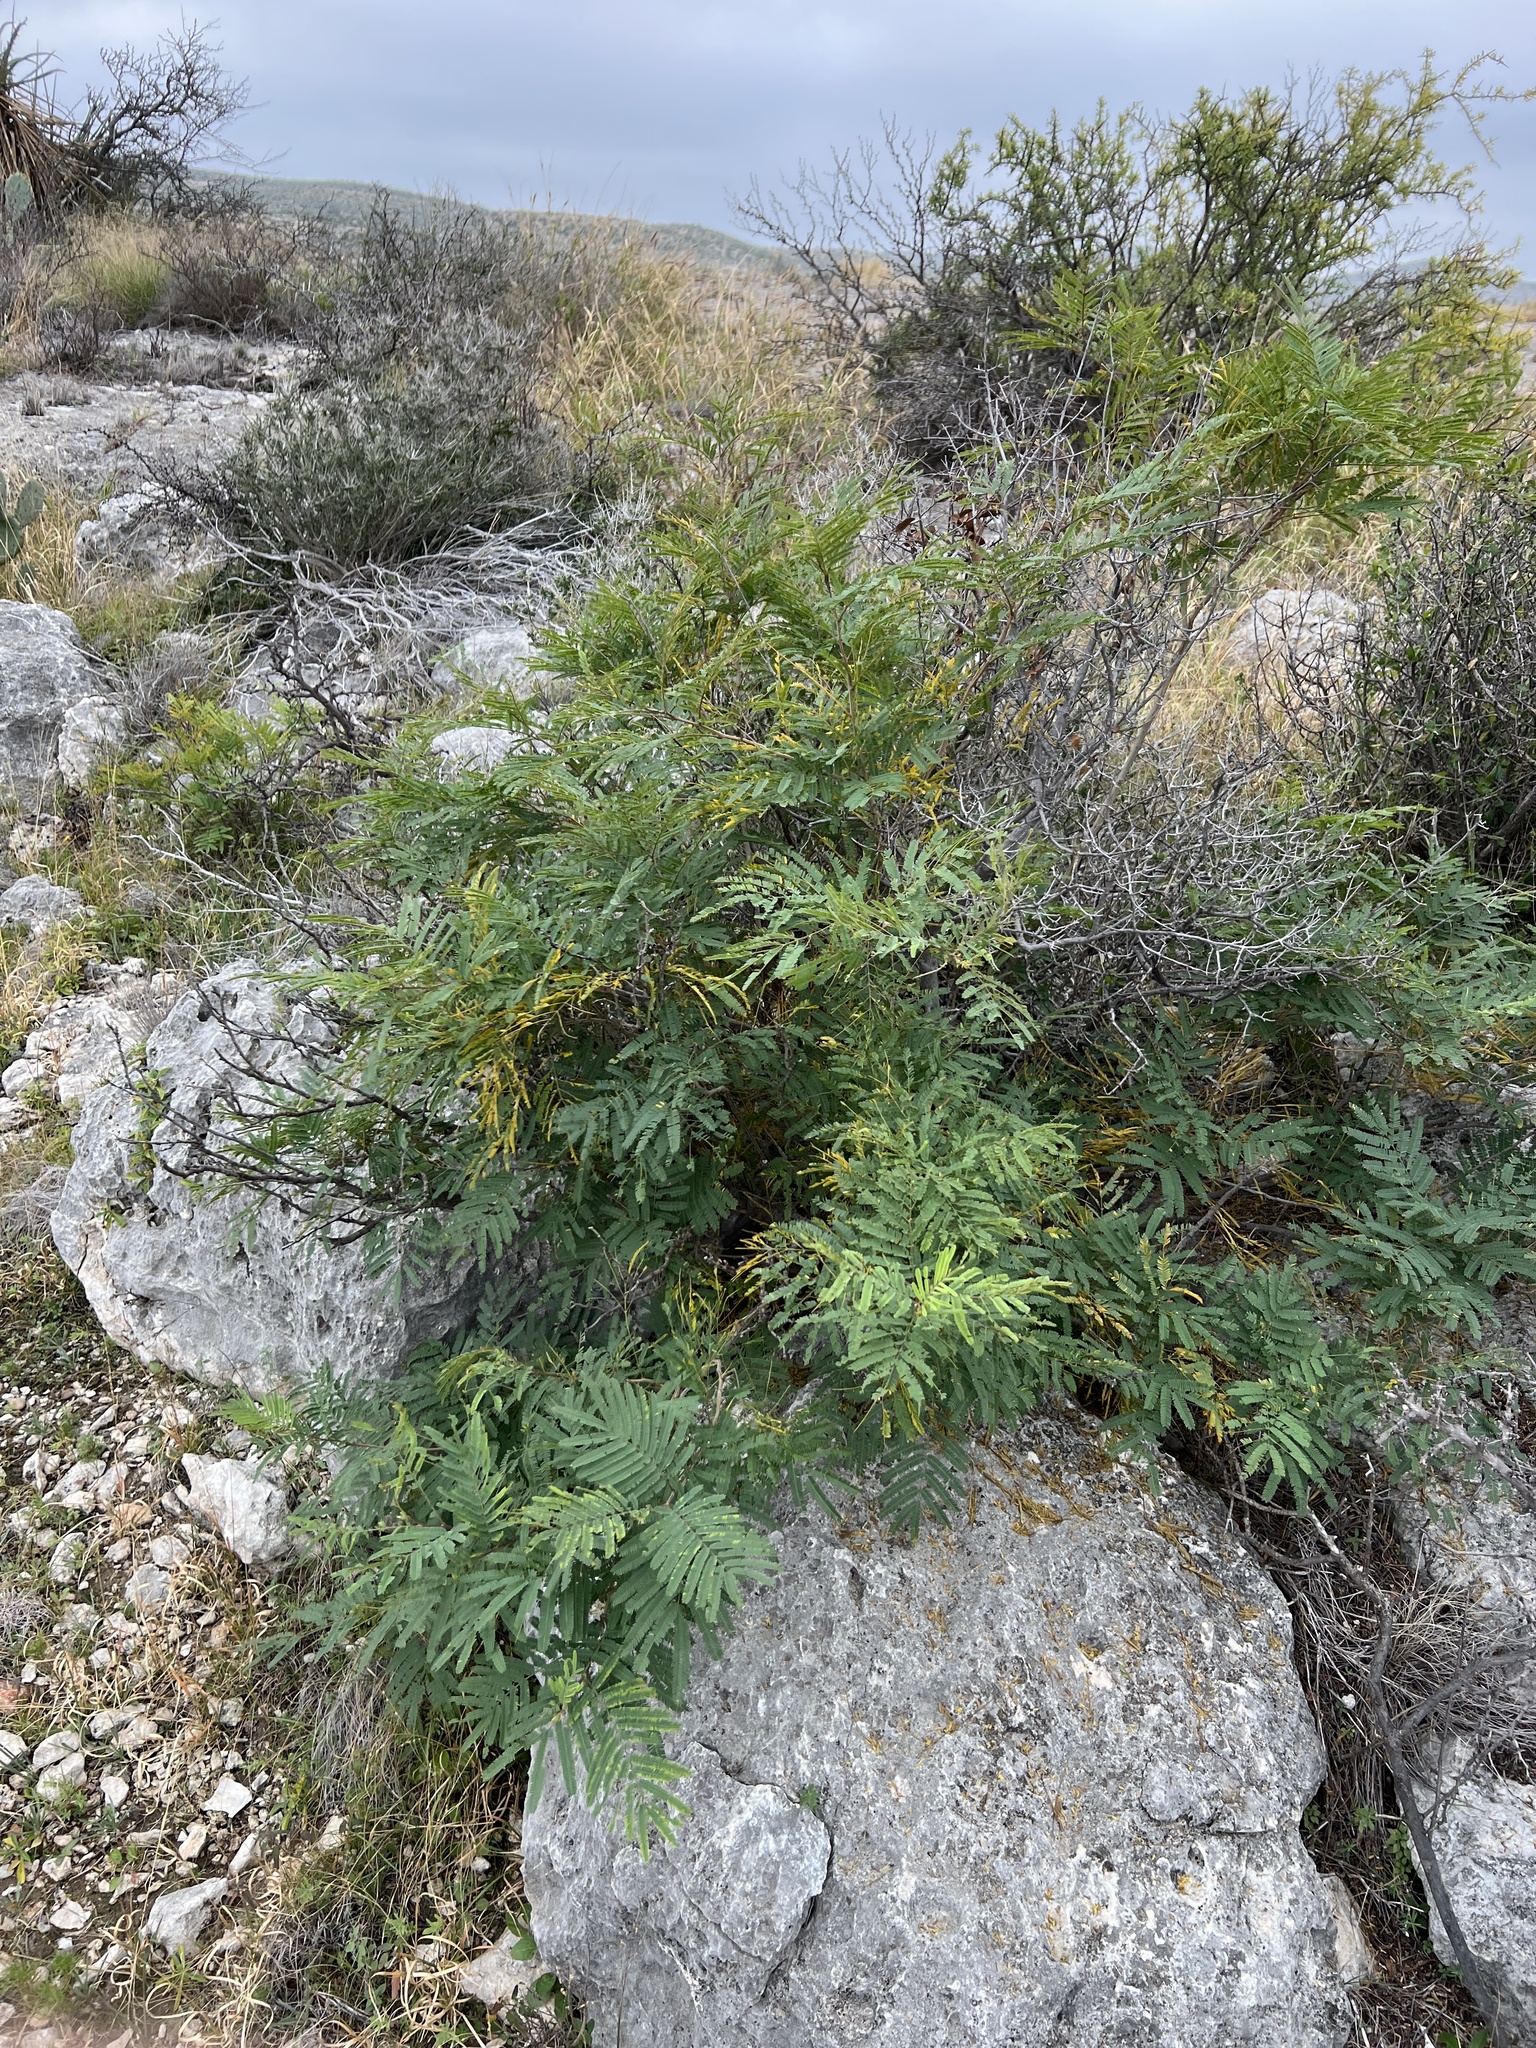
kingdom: Plantae
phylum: Tracheophyta
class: Magnoliopsida
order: Fabales
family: Fabaceae
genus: Senegalia
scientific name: Senegalia berlandieri
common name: Berlandier acacia
